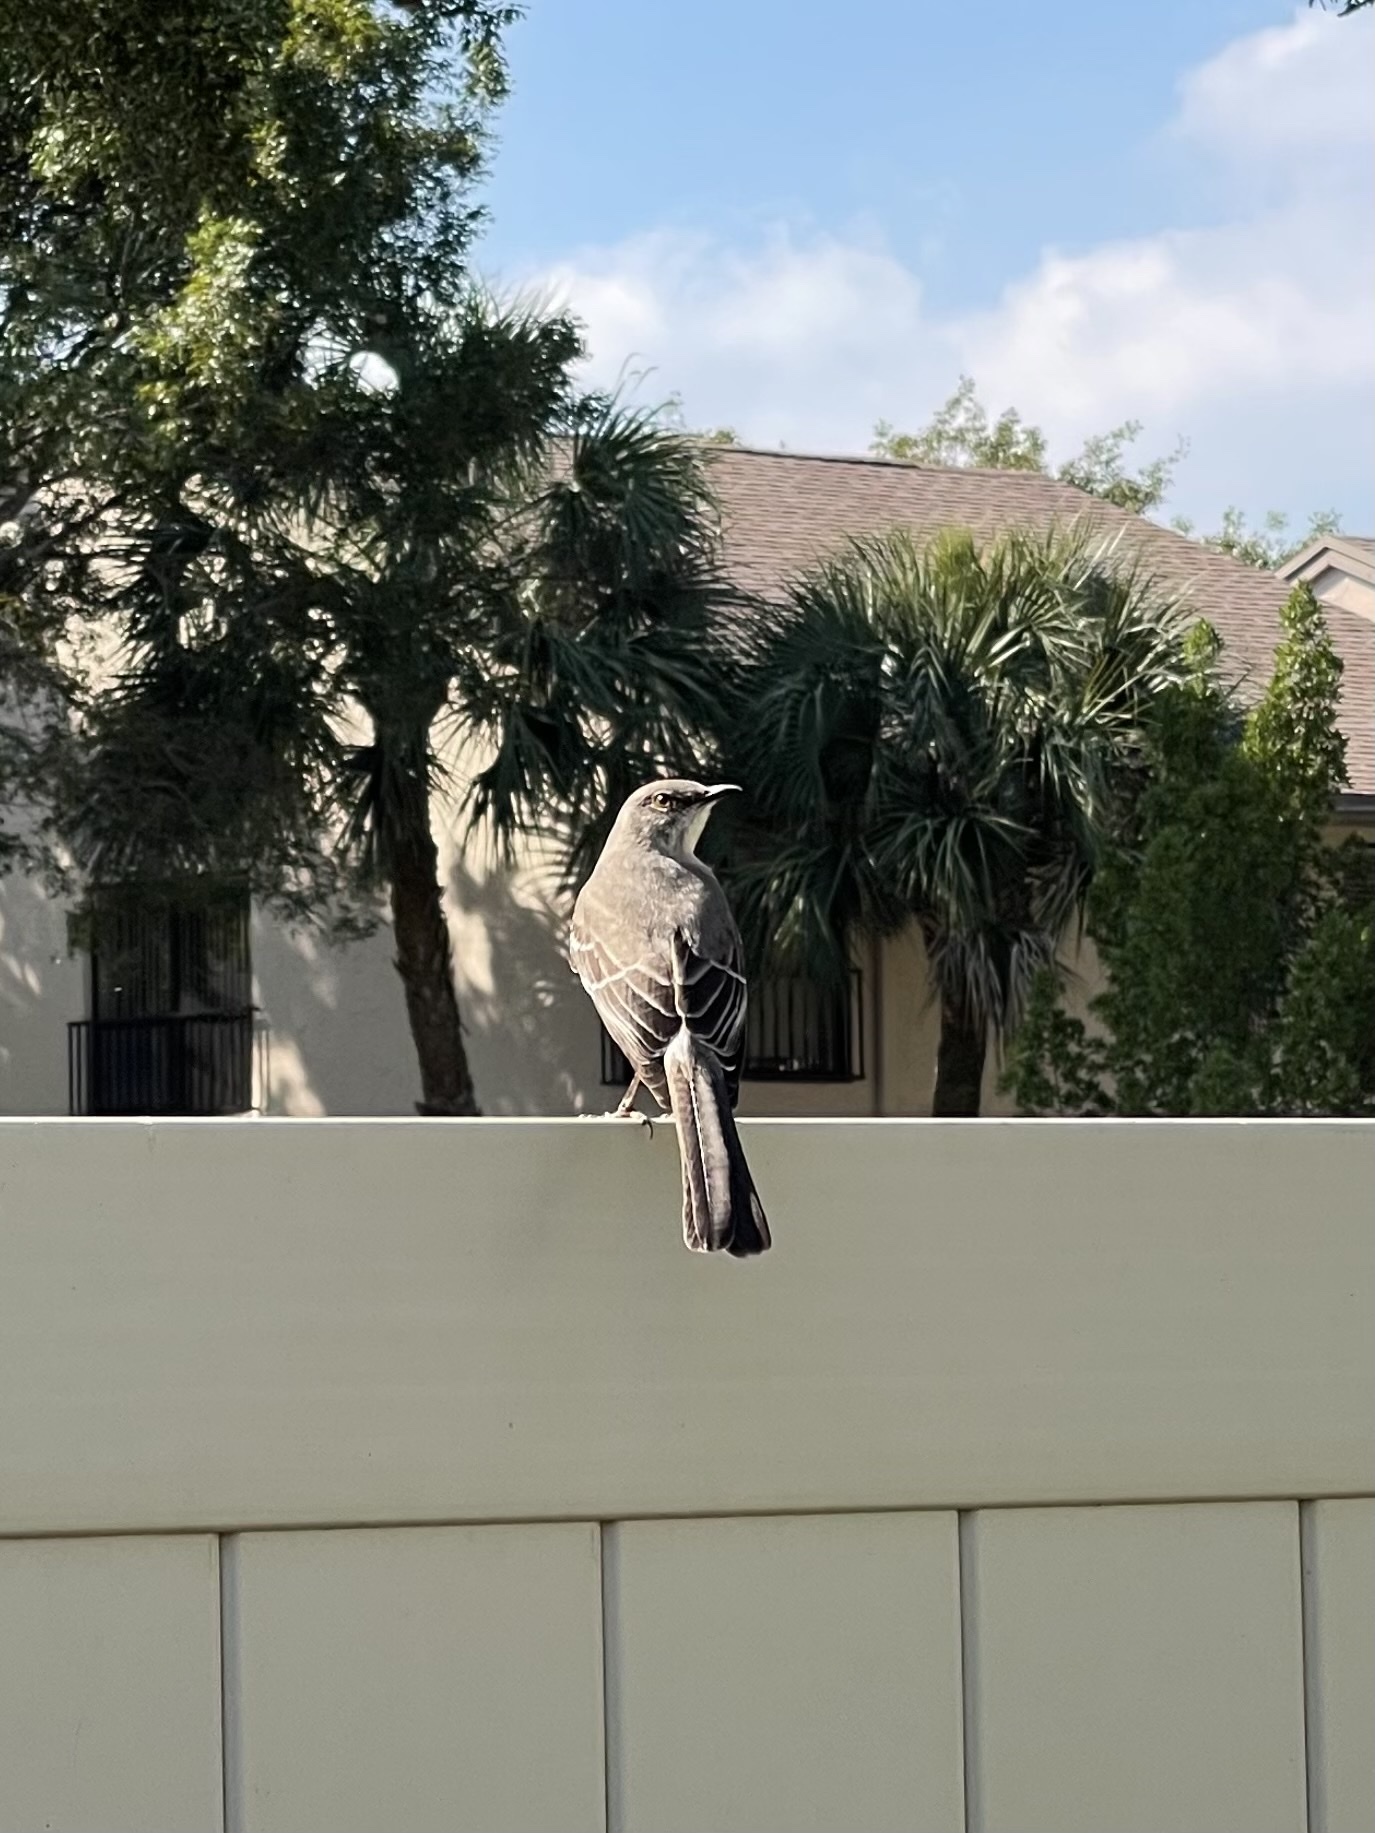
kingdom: Animalia
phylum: Chordata
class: Aves
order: Passeriformes
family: Mimidae
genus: Mimus
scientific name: Mimus polyglottos
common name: Northern mockingbird
